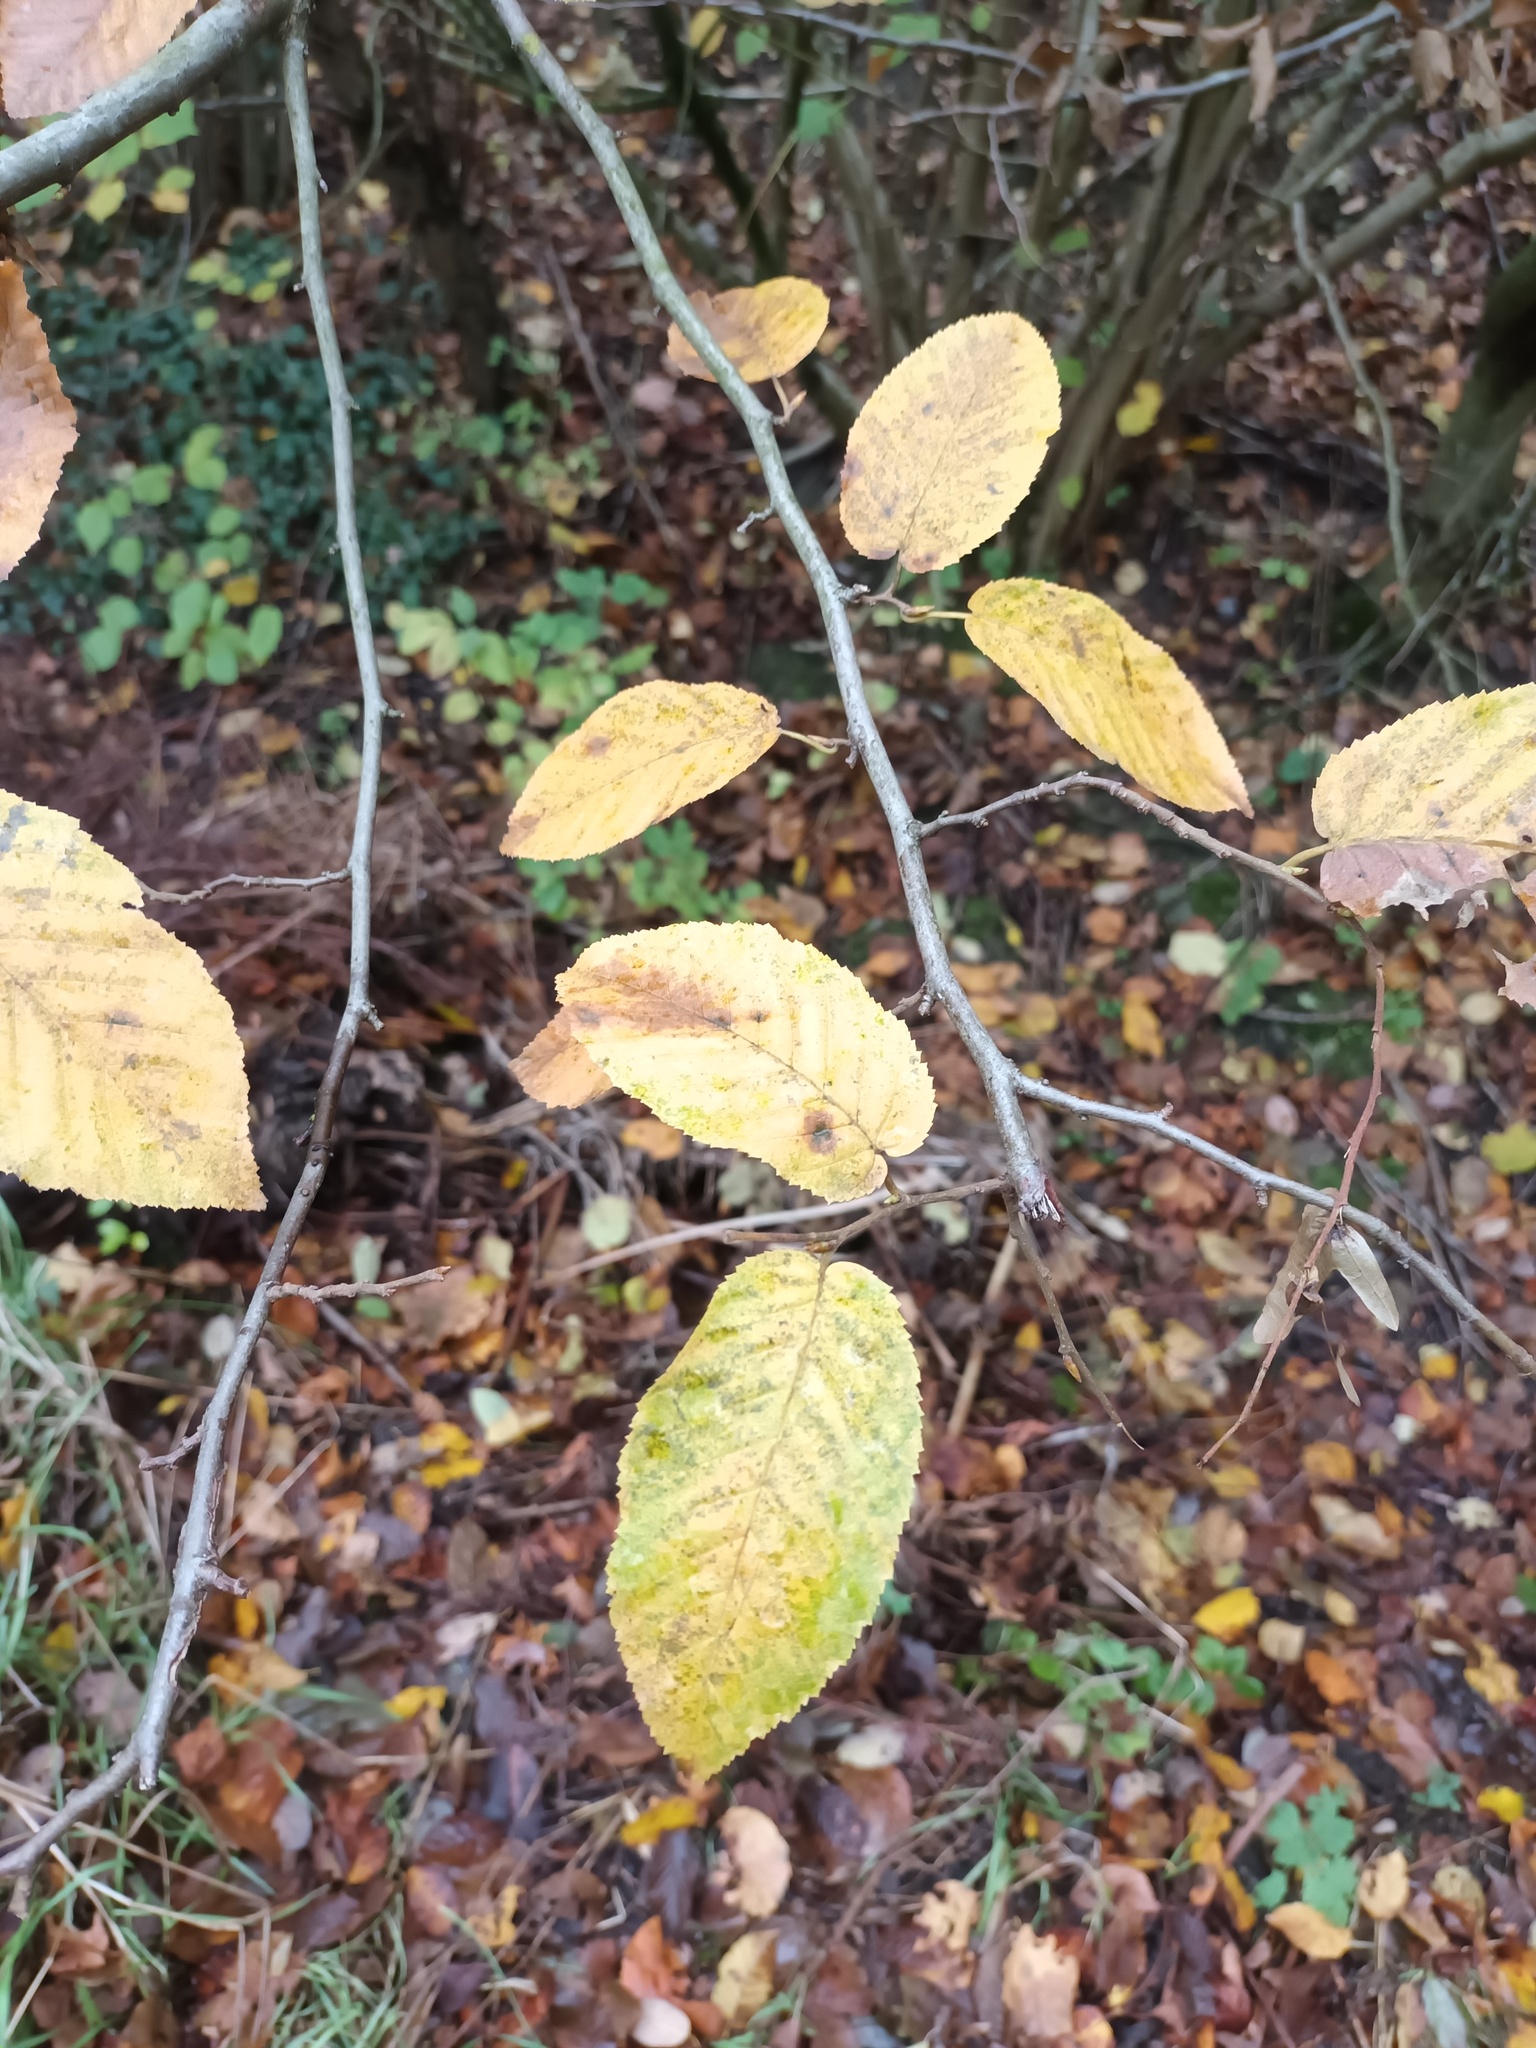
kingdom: Plantae
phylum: Tracheophyta
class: Magnoliopsida
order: Fagales
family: Betulaceae
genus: Carpinus
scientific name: Carpinus betulus
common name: Hornbeam
